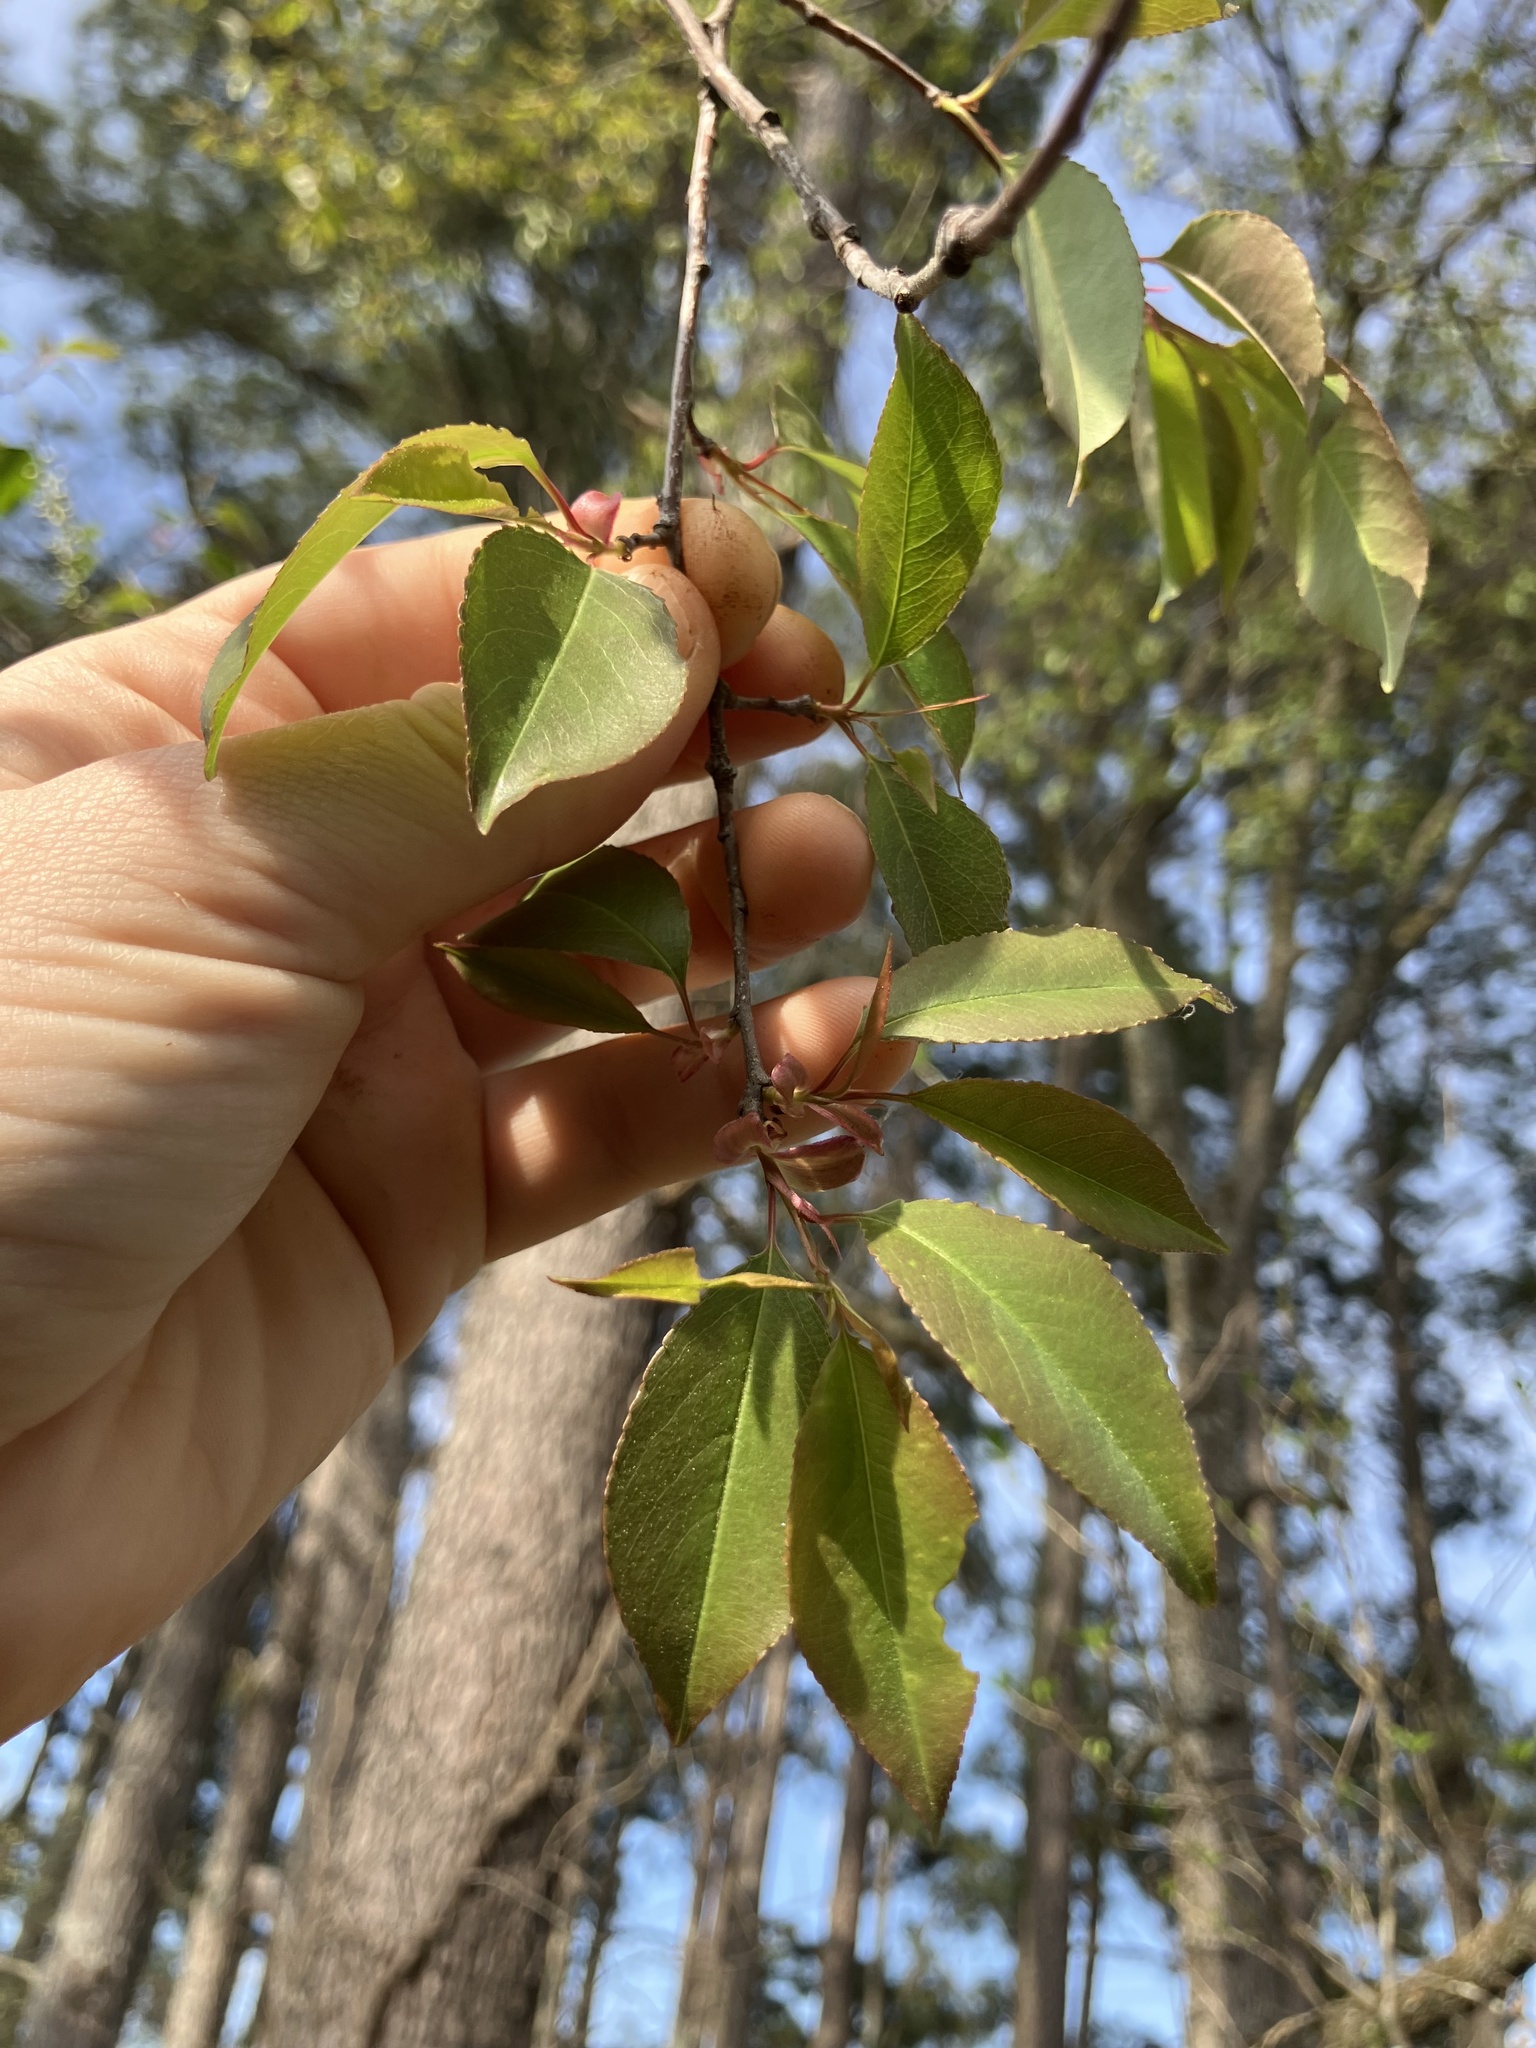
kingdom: Plantae
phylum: Tracheophyta
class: Magnoliopsida
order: Rosales
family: Rosaceae
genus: Prunus
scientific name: Prunus serotina
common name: Black cherry
